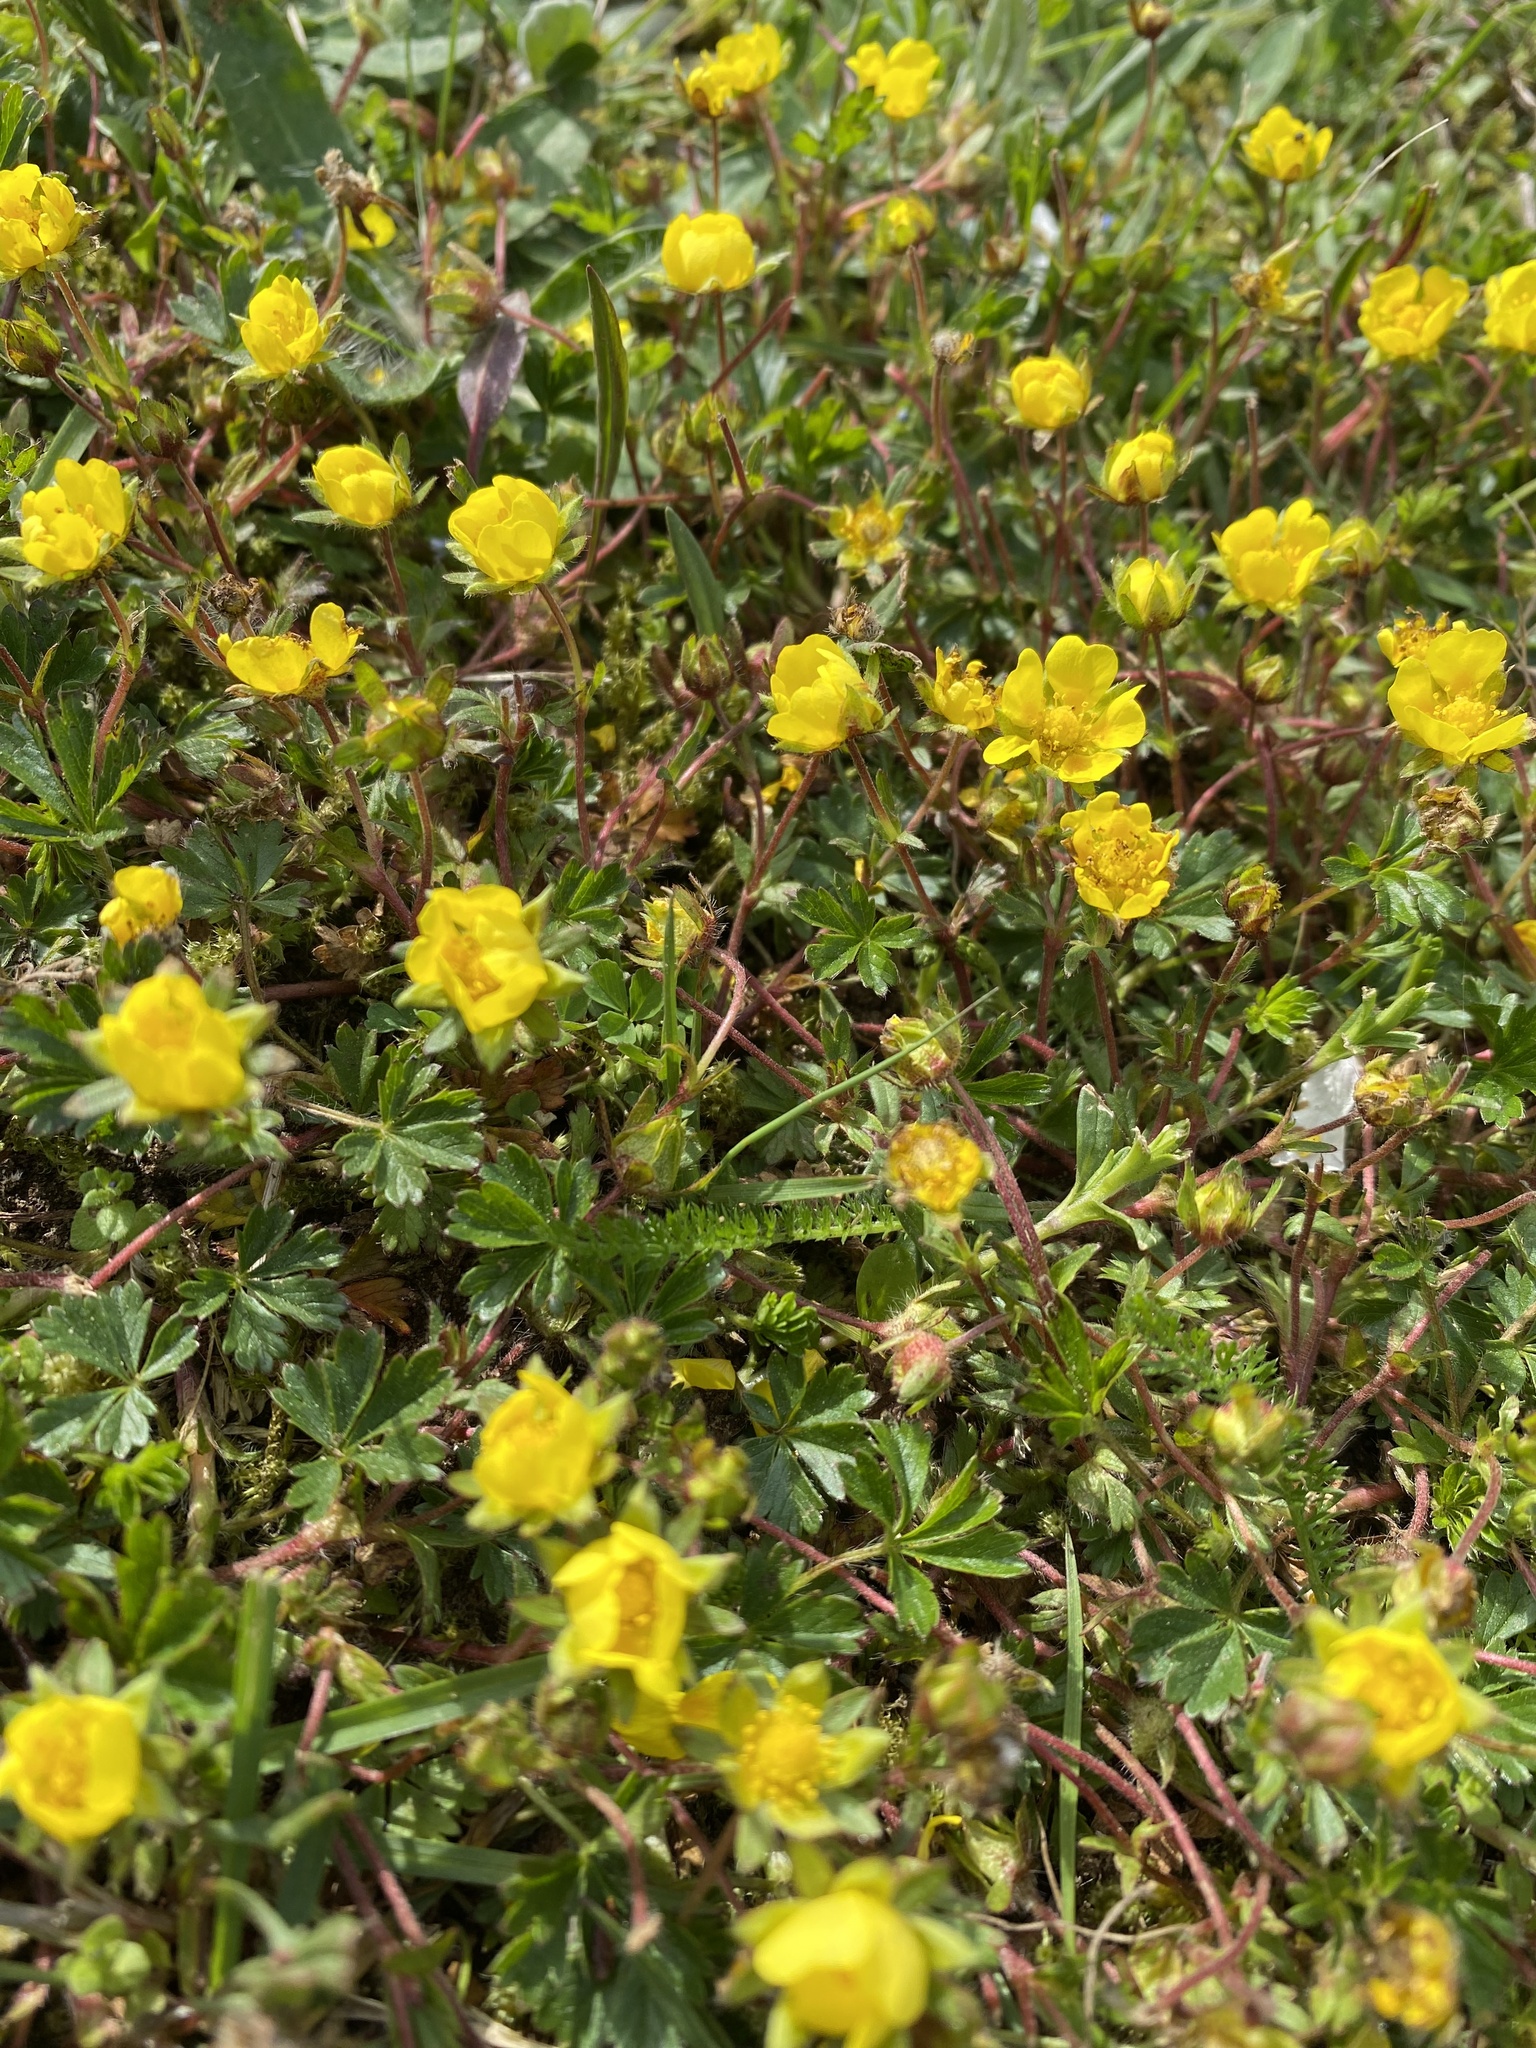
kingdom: Plantae
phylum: Tracheophyta
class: Magnoliopsida
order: Rosales
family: Rosaceae
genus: Potentilla
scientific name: Potentilla verna
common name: Spring cinquefoil
